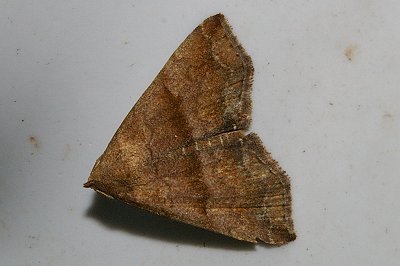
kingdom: Animalia
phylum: Arthropoda
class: Insecta
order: Lepidoptera
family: Erebidae
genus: Polypogon
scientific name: Polypogon Hipoepa fractalis
